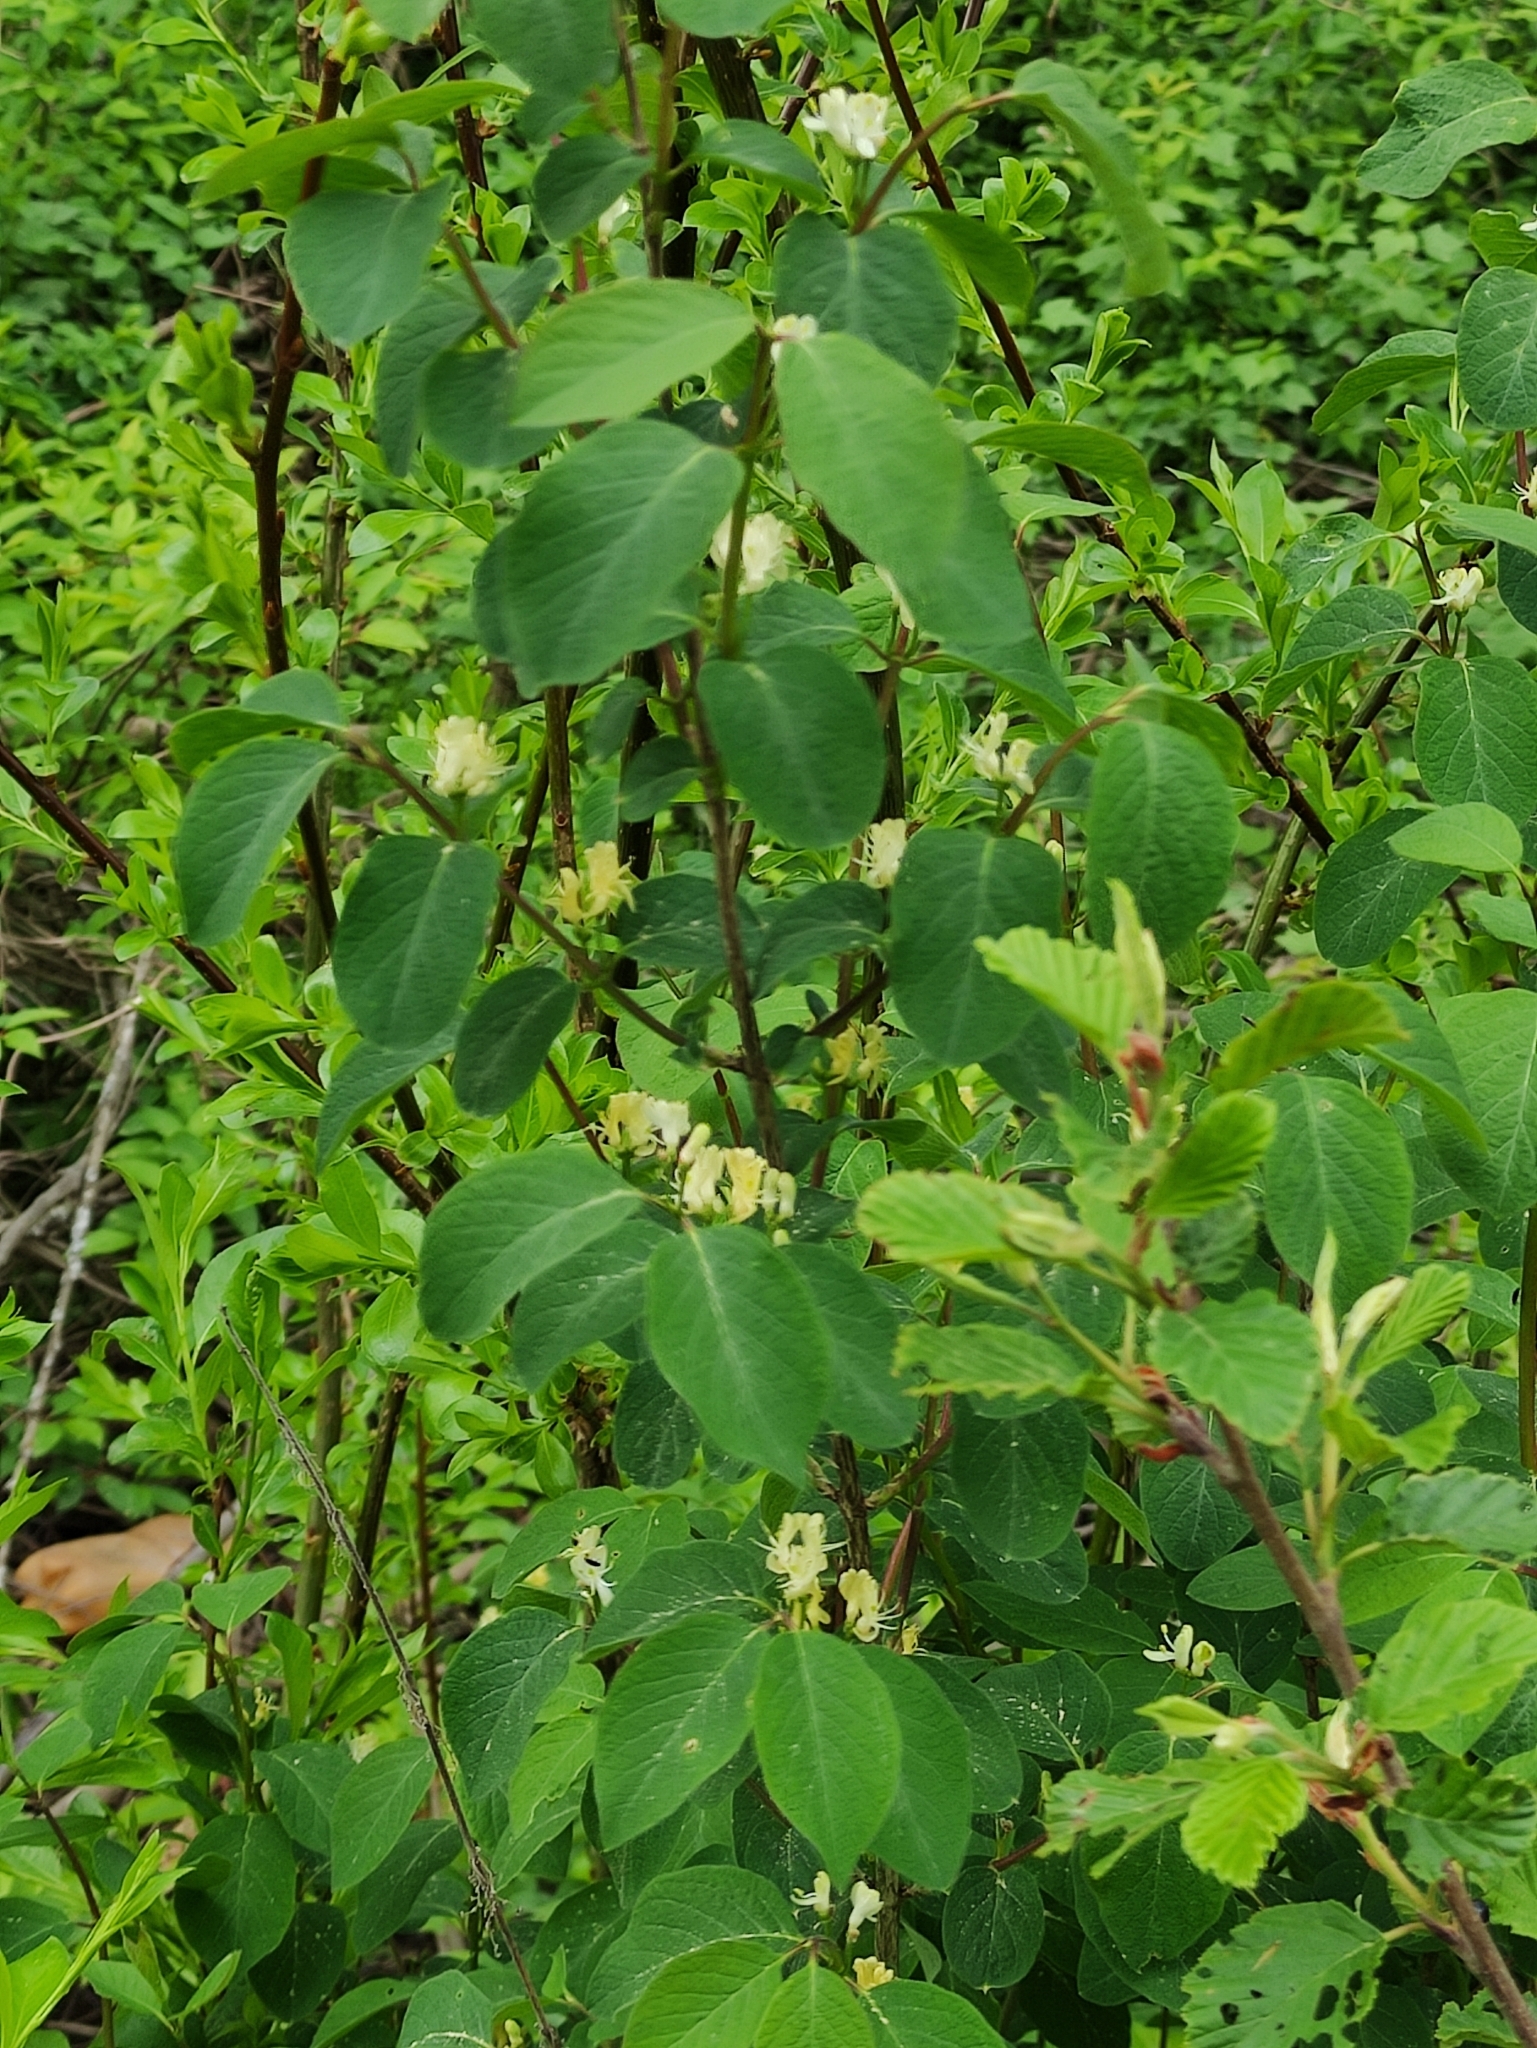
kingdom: Plantae
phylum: Tracheophyta
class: Magnoliopsida
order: Dipsacales
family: Caprifoliaceae
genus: Lonicera
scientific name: Lonicera xylosteum
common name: Fly honeysuckle
